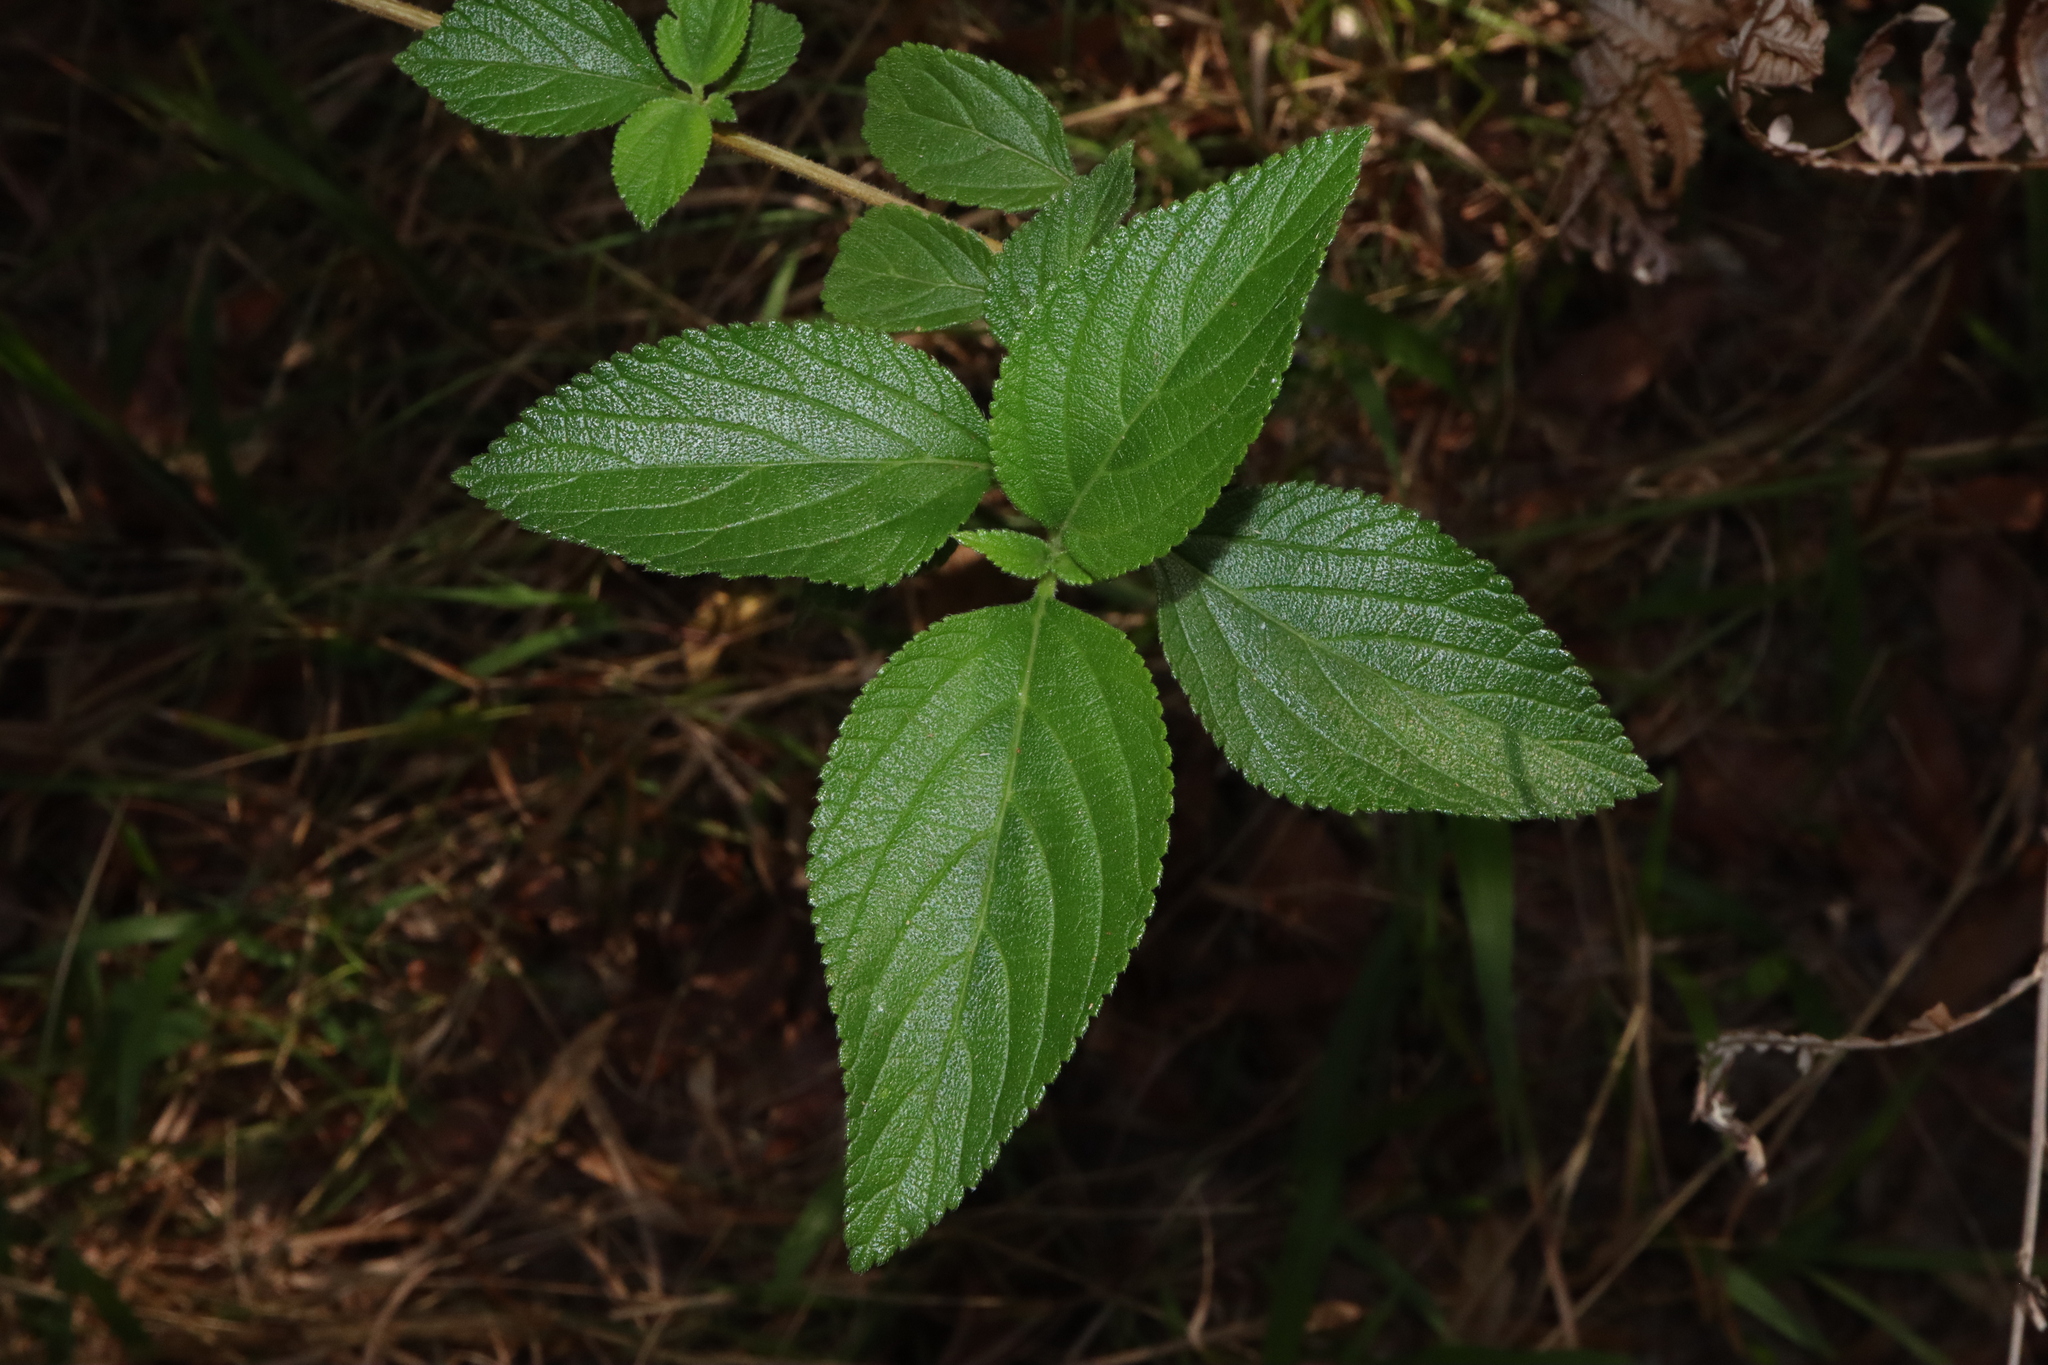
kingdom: Plantae
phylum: Tracheophyta
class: Magnoliopsida
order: Lamiales
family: Verbenaceae
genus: Lantana
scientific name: Lantana camara
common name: Lantana
